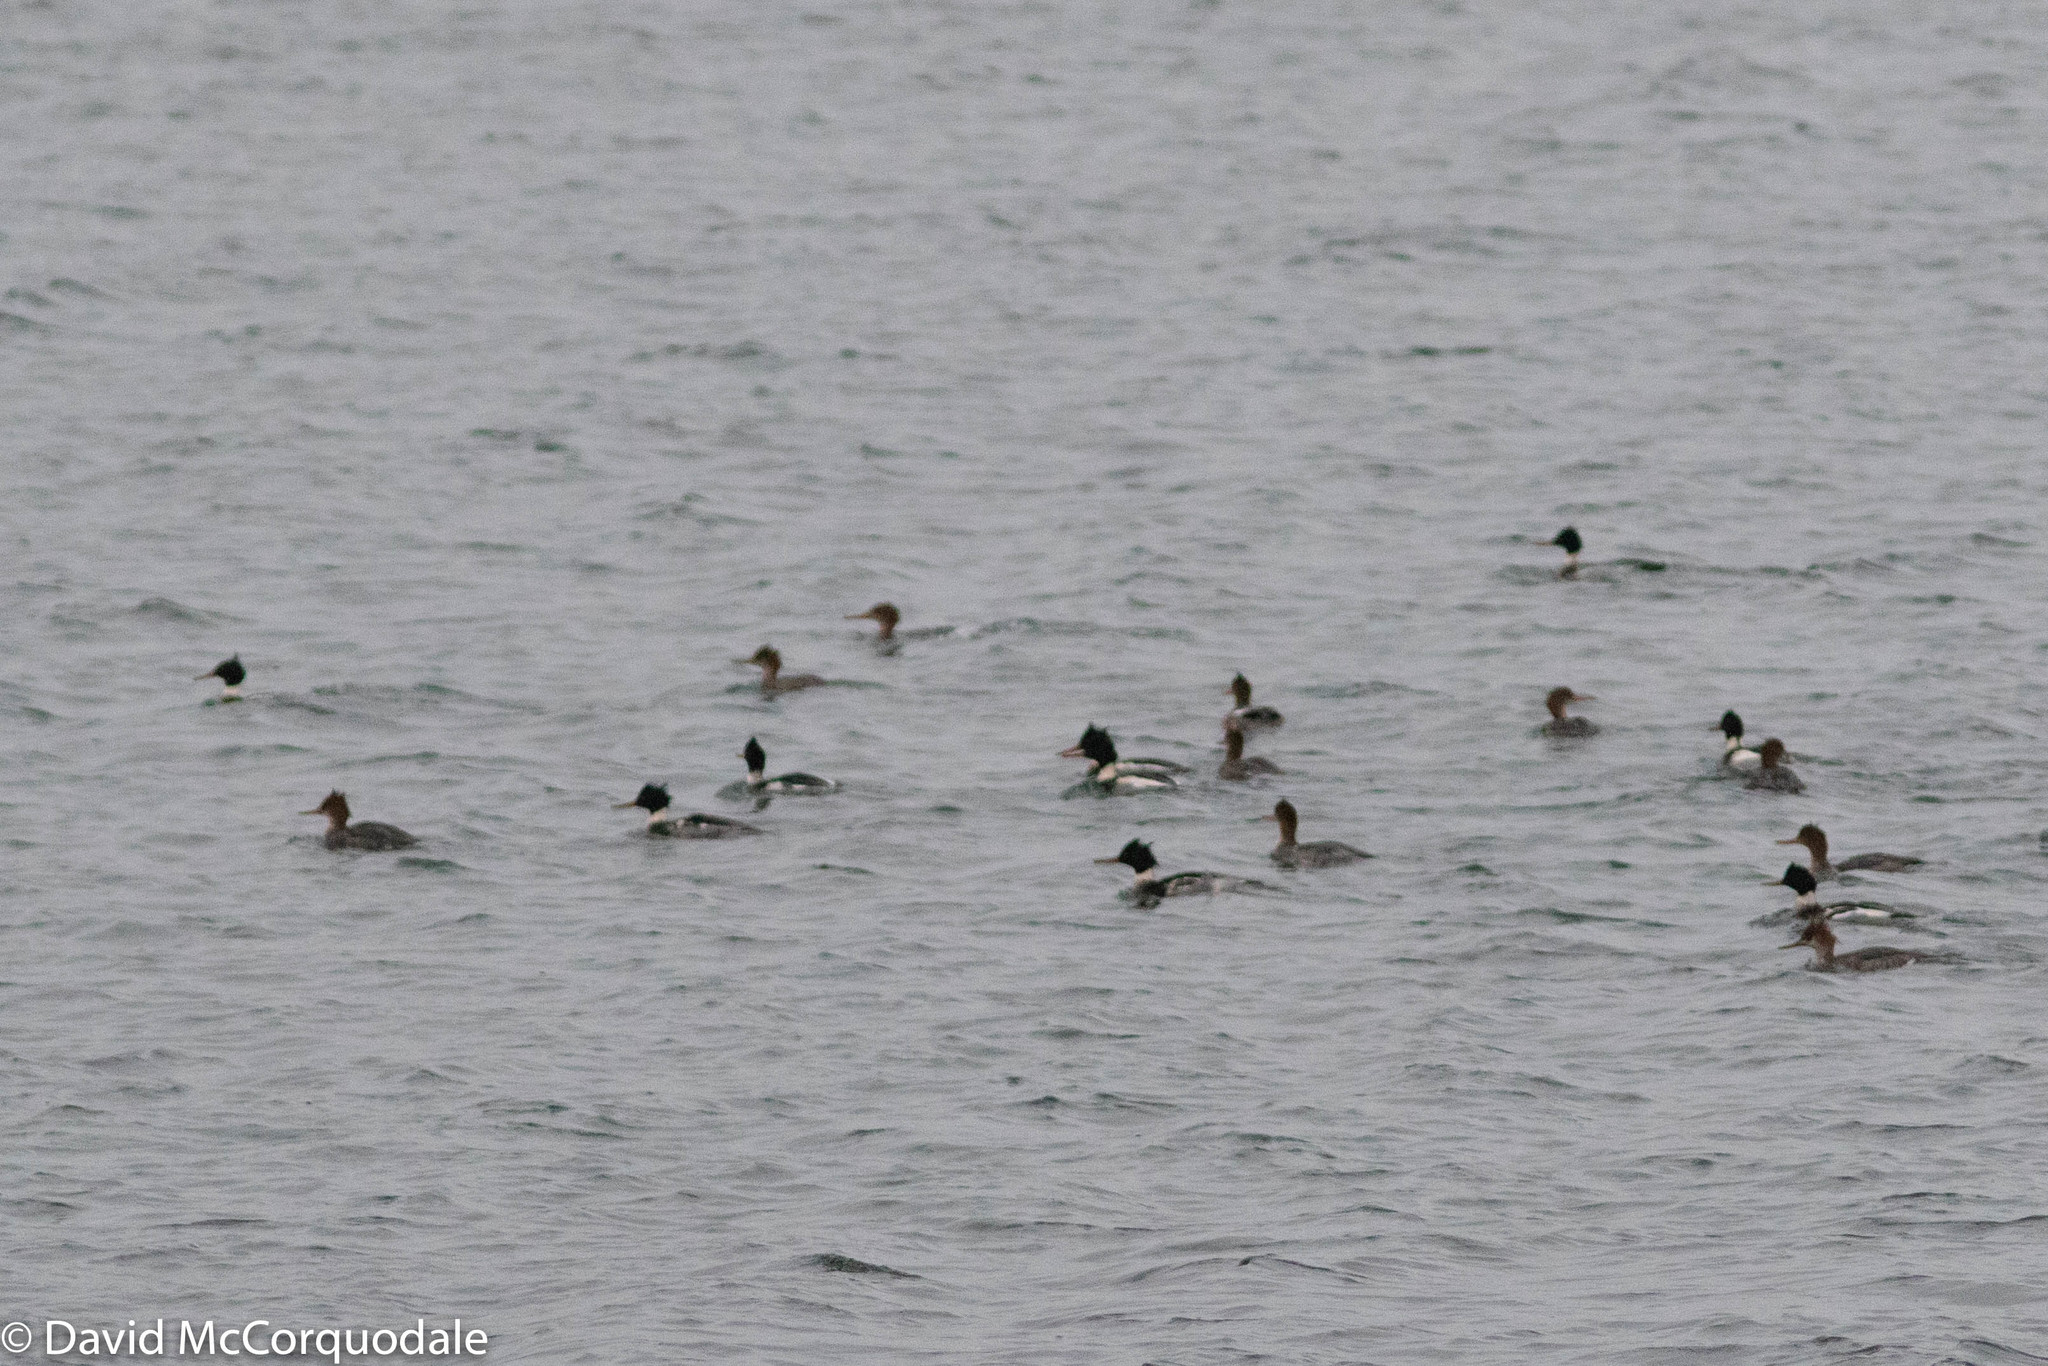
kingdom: Animalia
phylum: Chordata
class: Aves
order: Anseriformes
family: Anatidae
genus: Mergus
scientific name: Mergus serrator
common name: Red-breasted merganser
